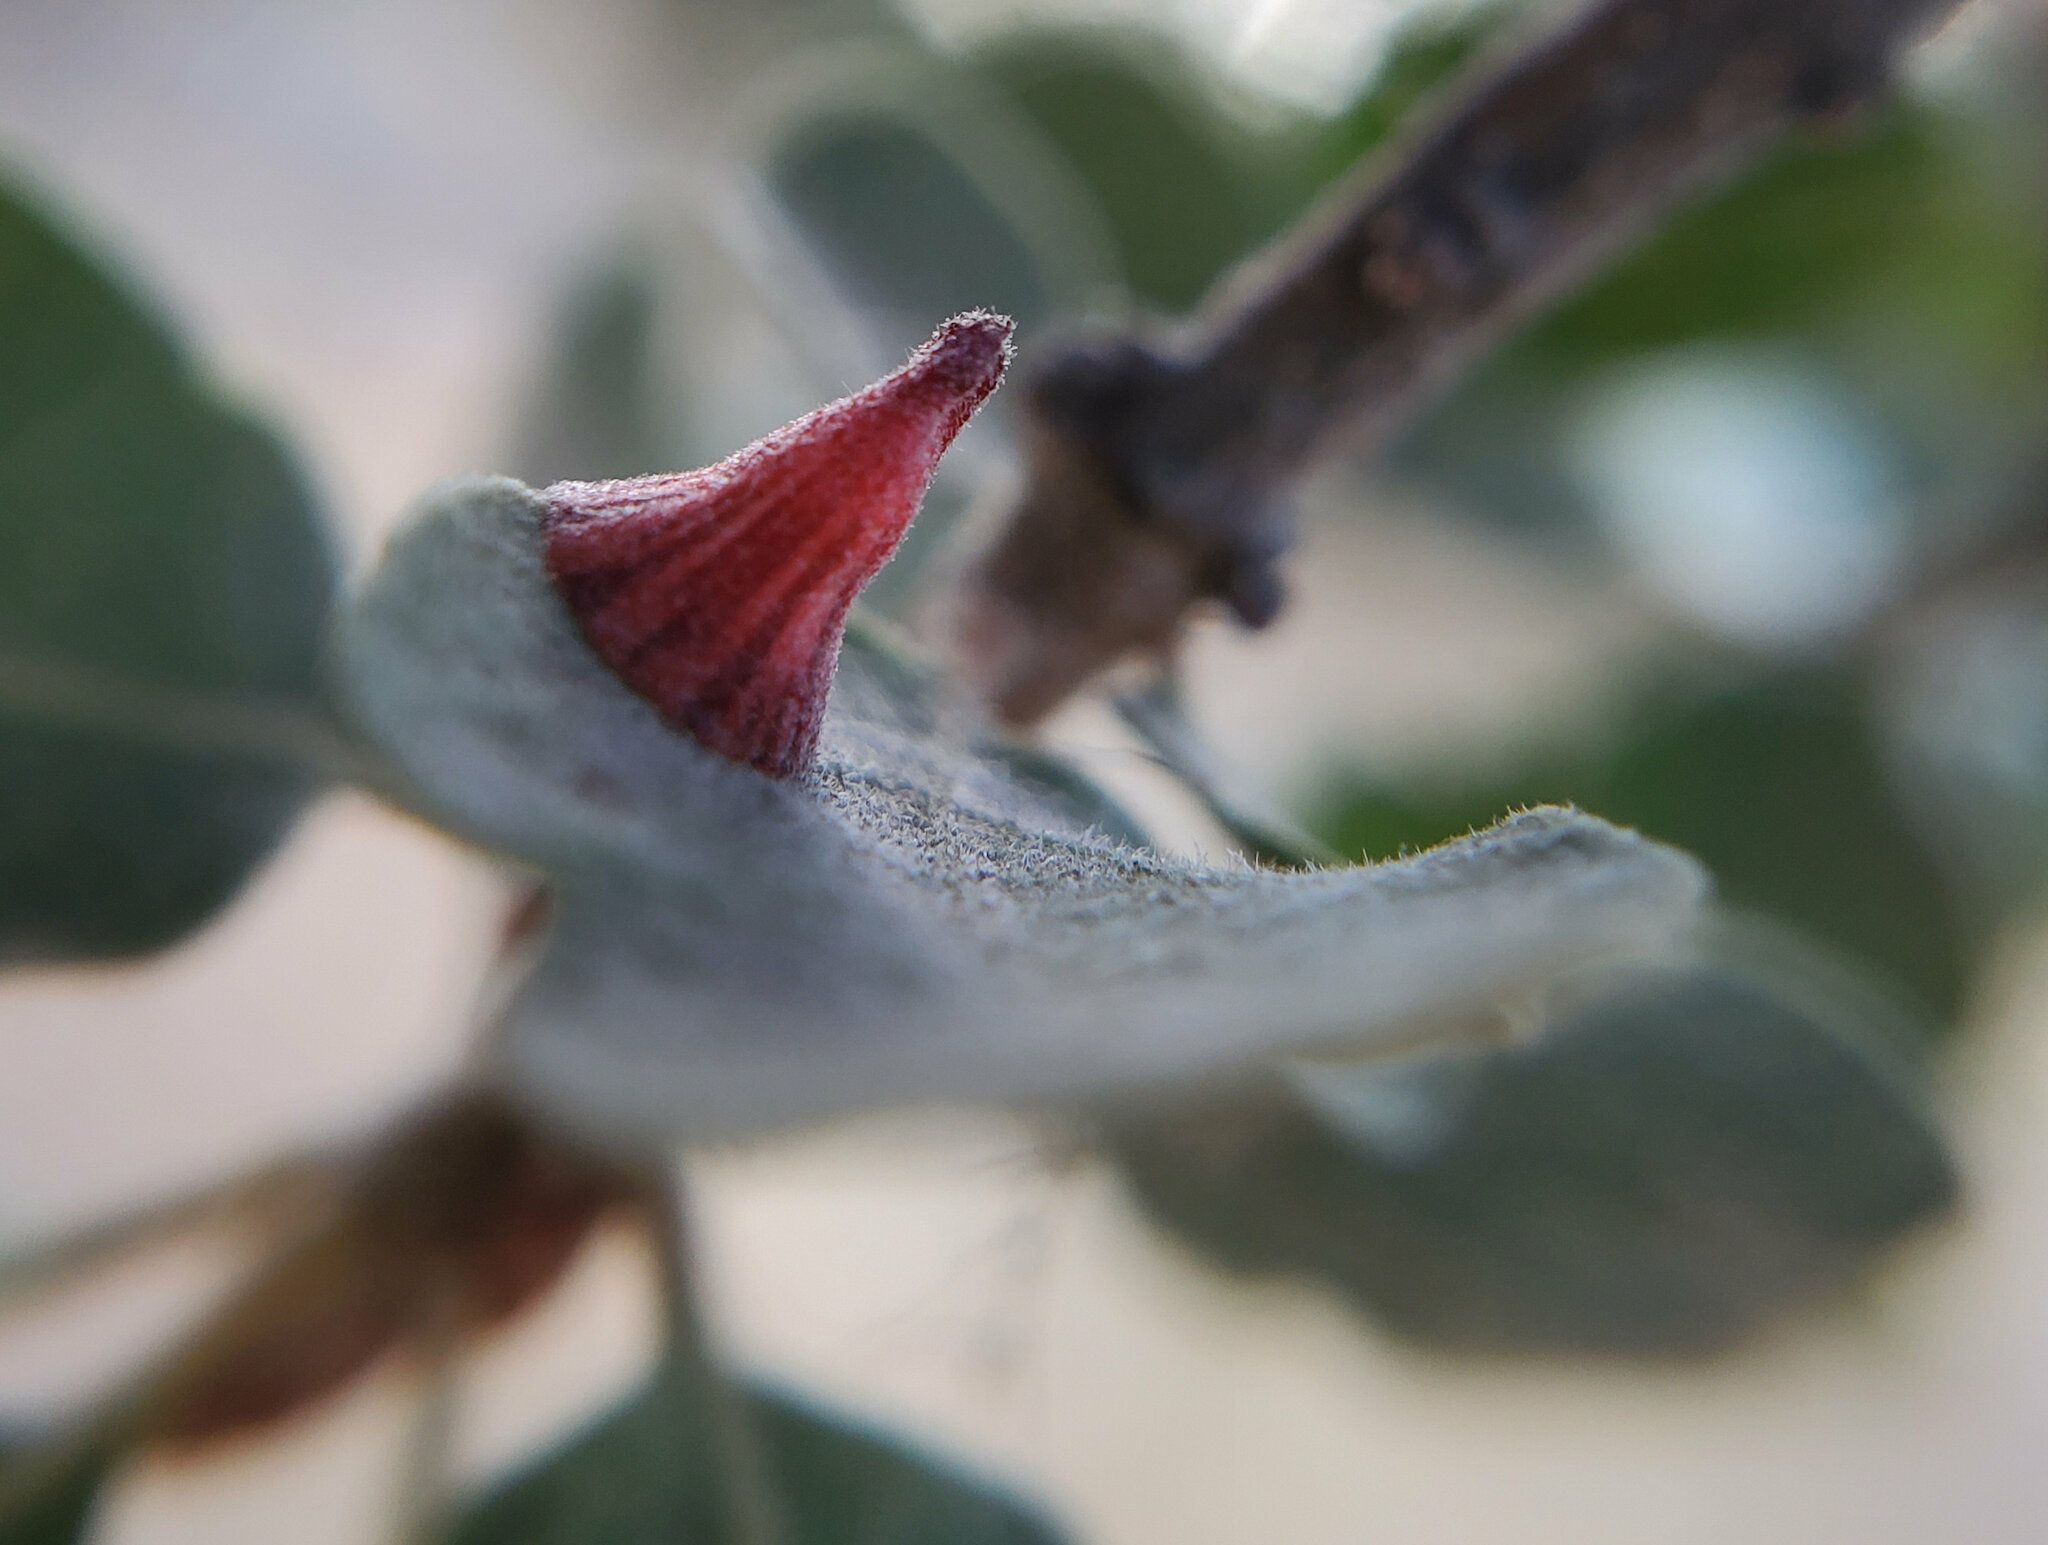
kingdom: Animalia
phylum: Arthropoda
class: Insecta
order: Hymenoptera
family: Cynipidae
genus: Andricus
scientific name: Andricus
